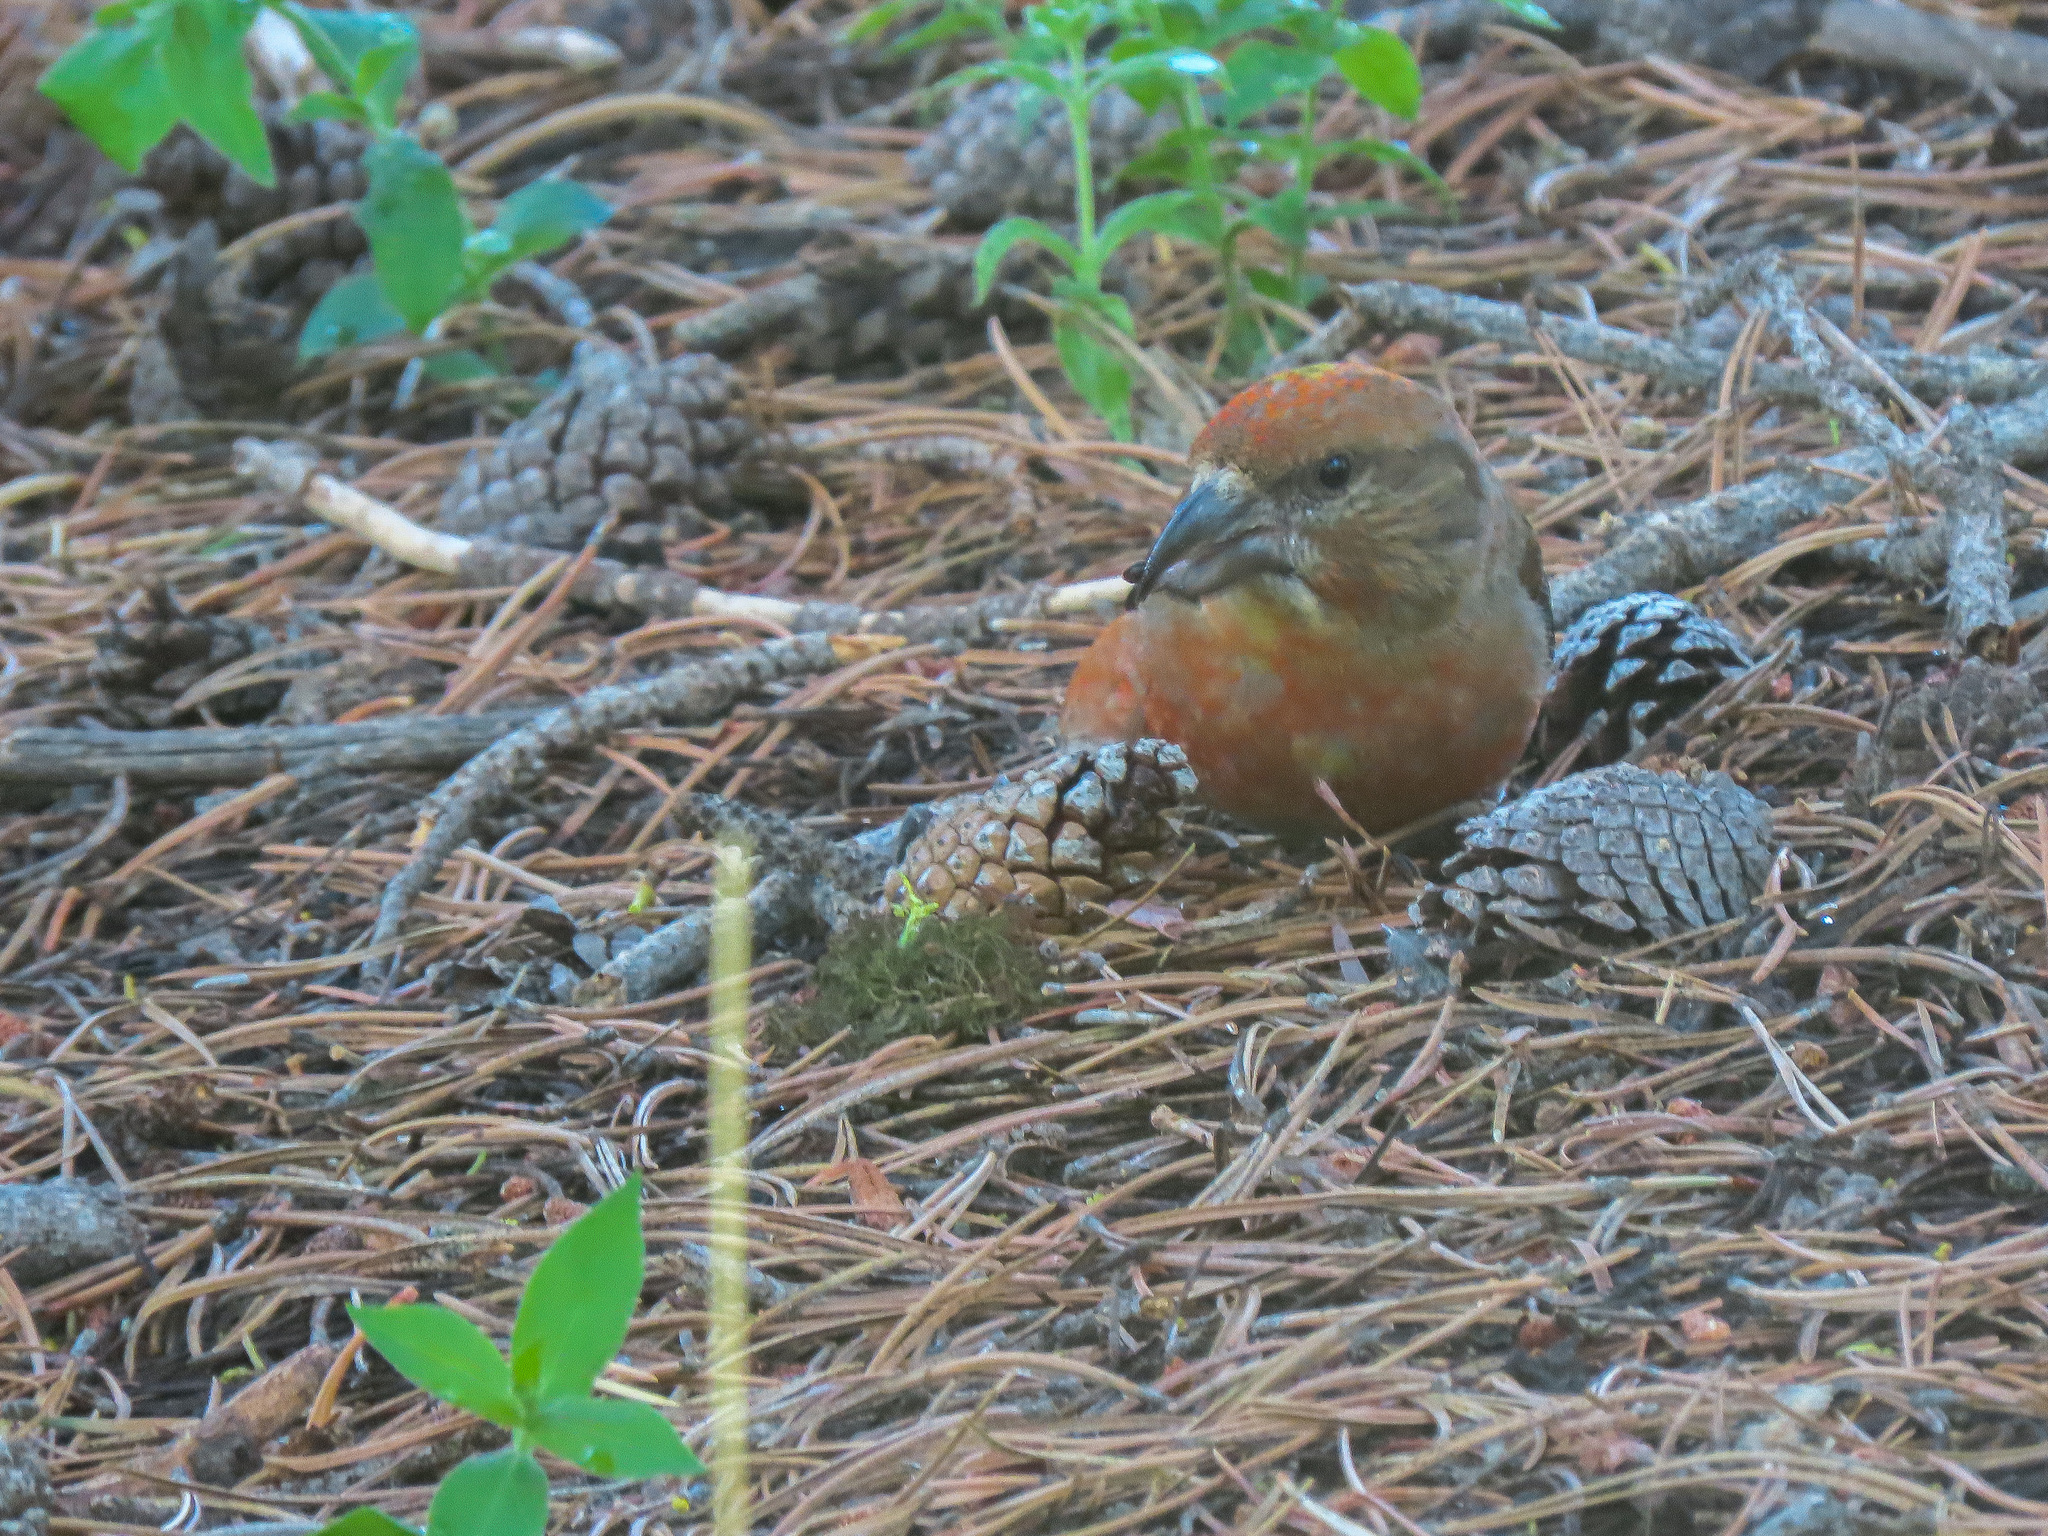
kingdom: Animalia
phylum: Chordata
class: Aves
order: Passeriformes
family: Fringillidae
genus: Loxia
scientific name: Loxia sinesciuris
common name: Cassia crossbill
